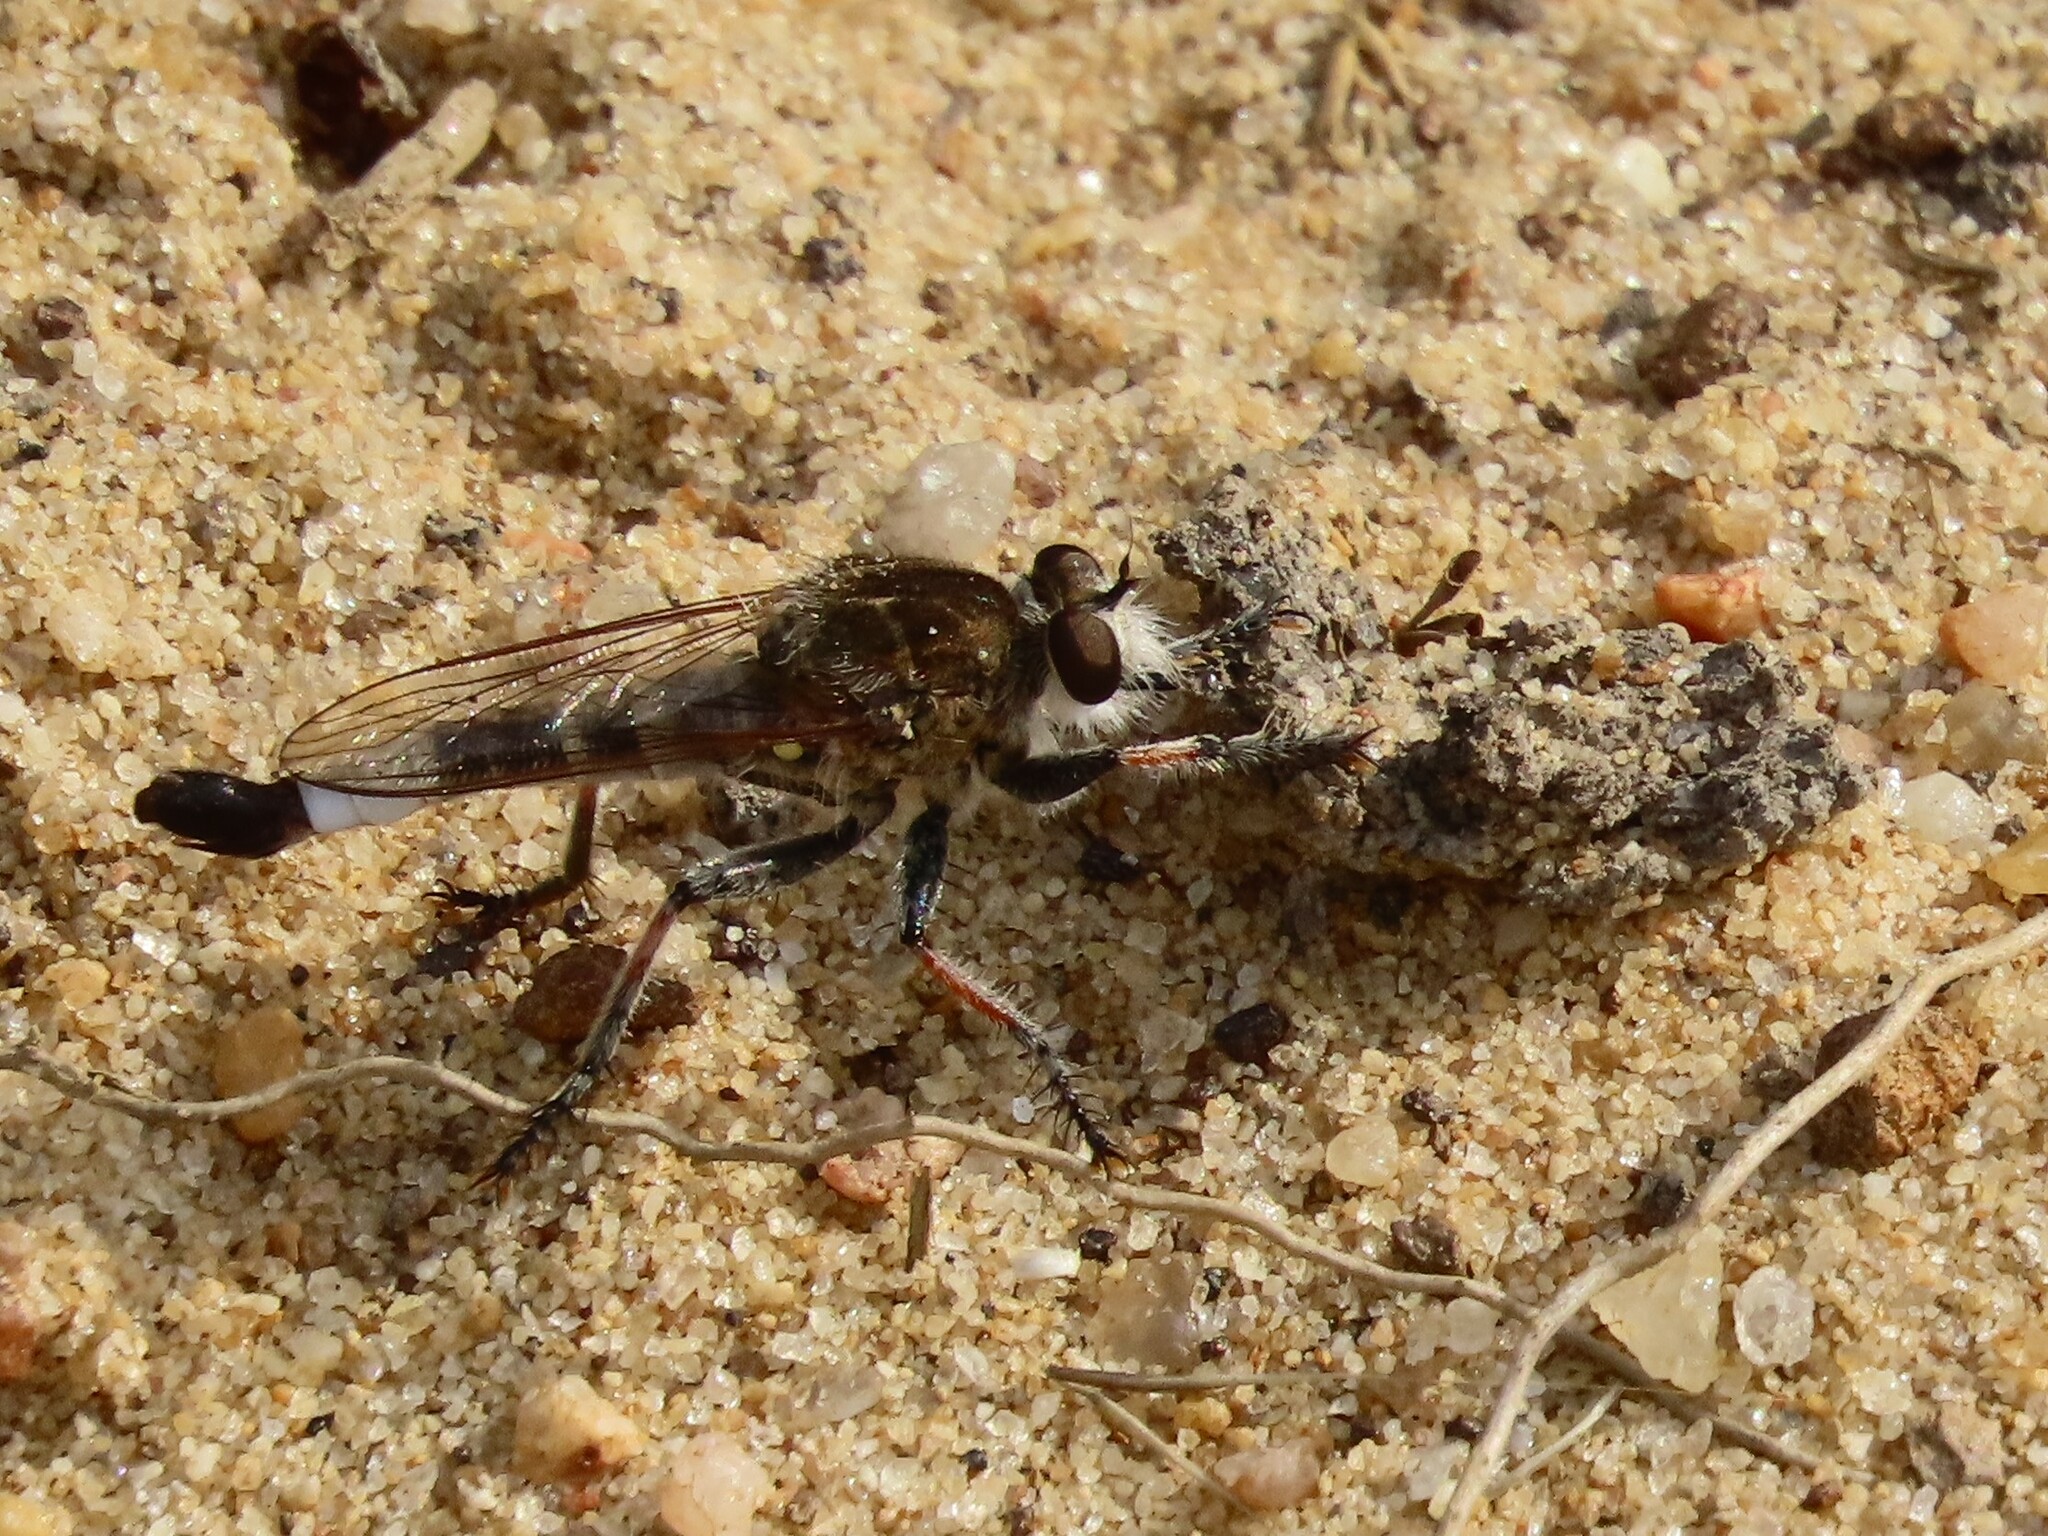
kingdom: Animalia
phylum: Arthropoda
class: Insecta
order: Diptera
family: Asilidae
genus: Efferia
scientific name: Efferia albibarbis
